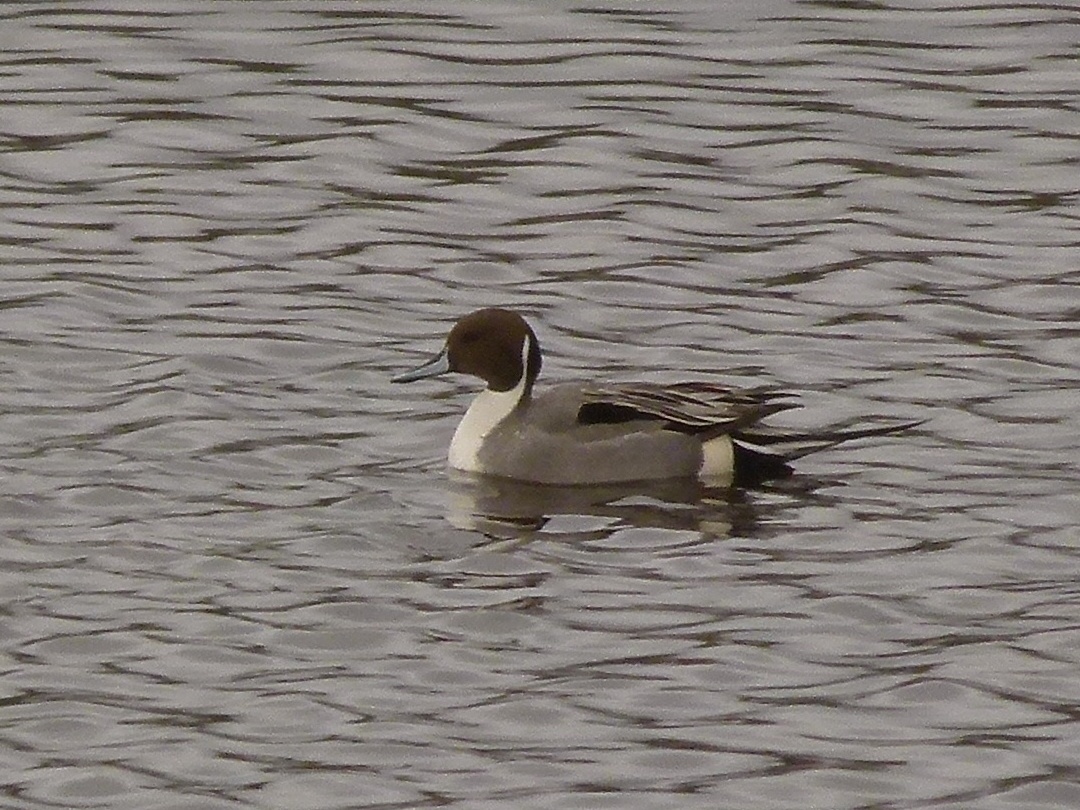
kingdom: Animalia
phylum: Chordata
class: Aves
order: Anseriformes
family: Anatidae
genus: Anas
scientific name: Anas acuta
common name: Northern pintail
